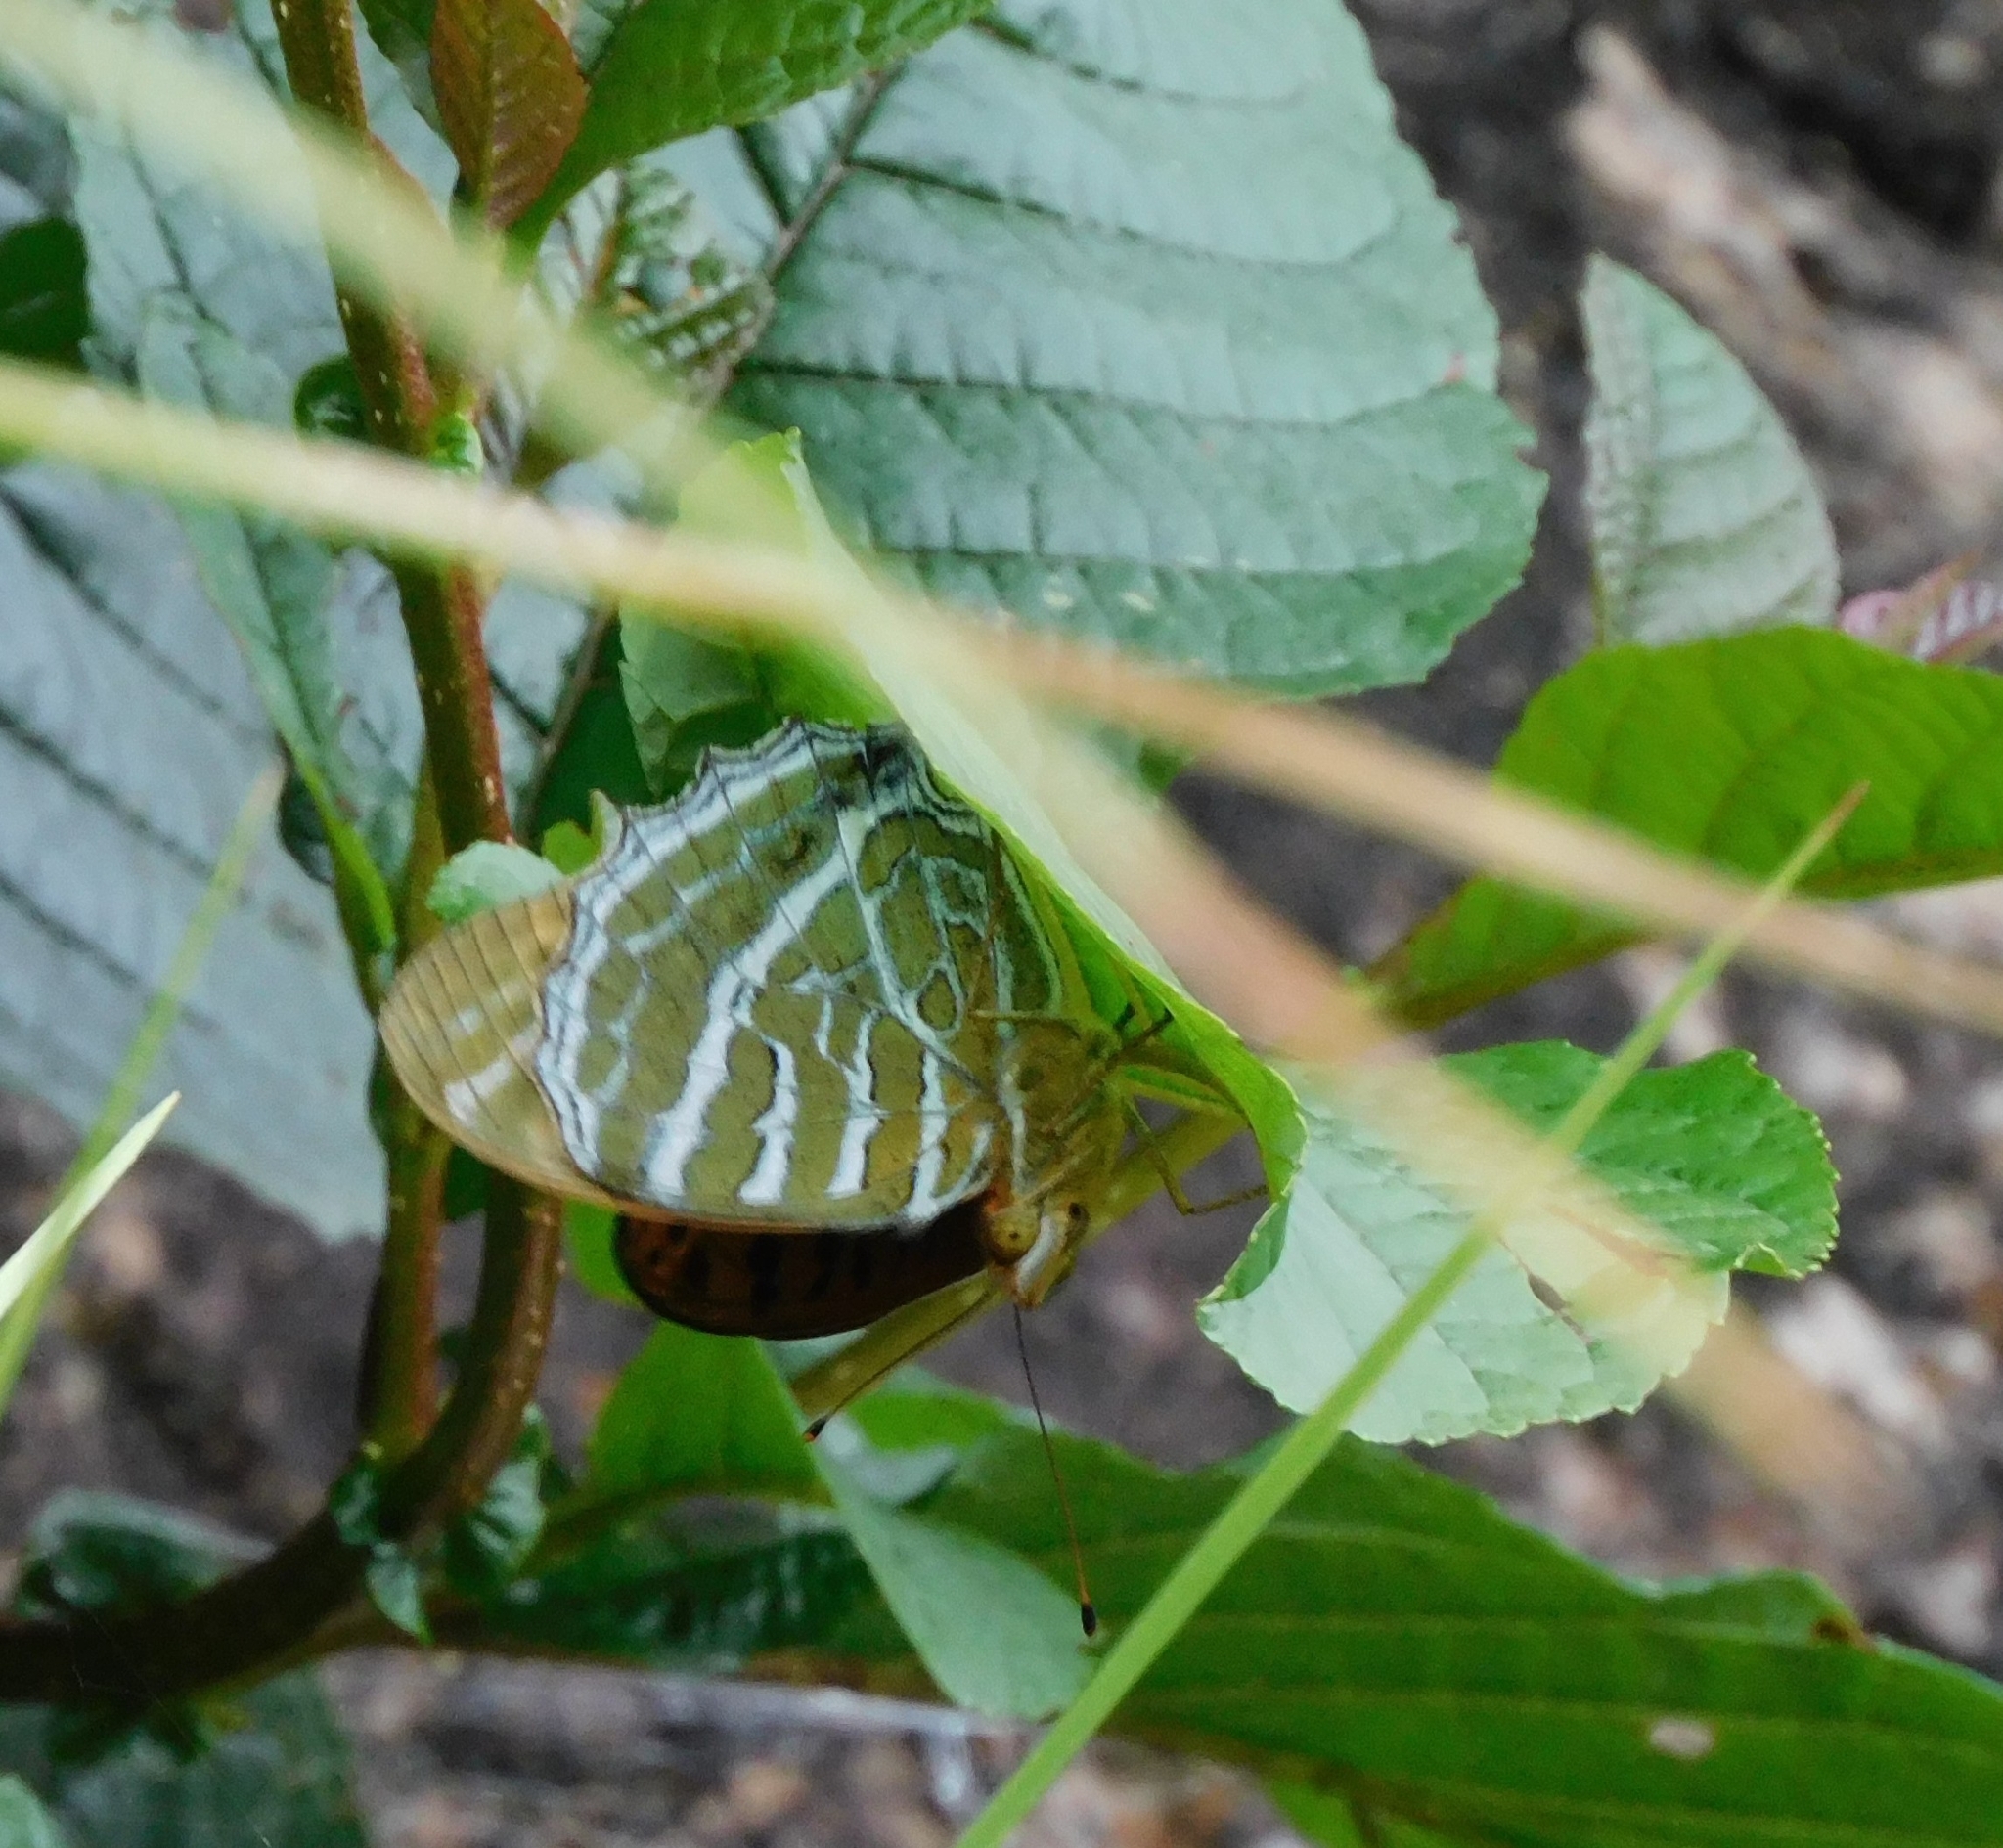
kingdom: Animalia
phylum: Arthropoda
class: Insecta
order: Lepidoptera
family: Nymphalidae
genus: Childrena
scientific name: Childrena childreni
